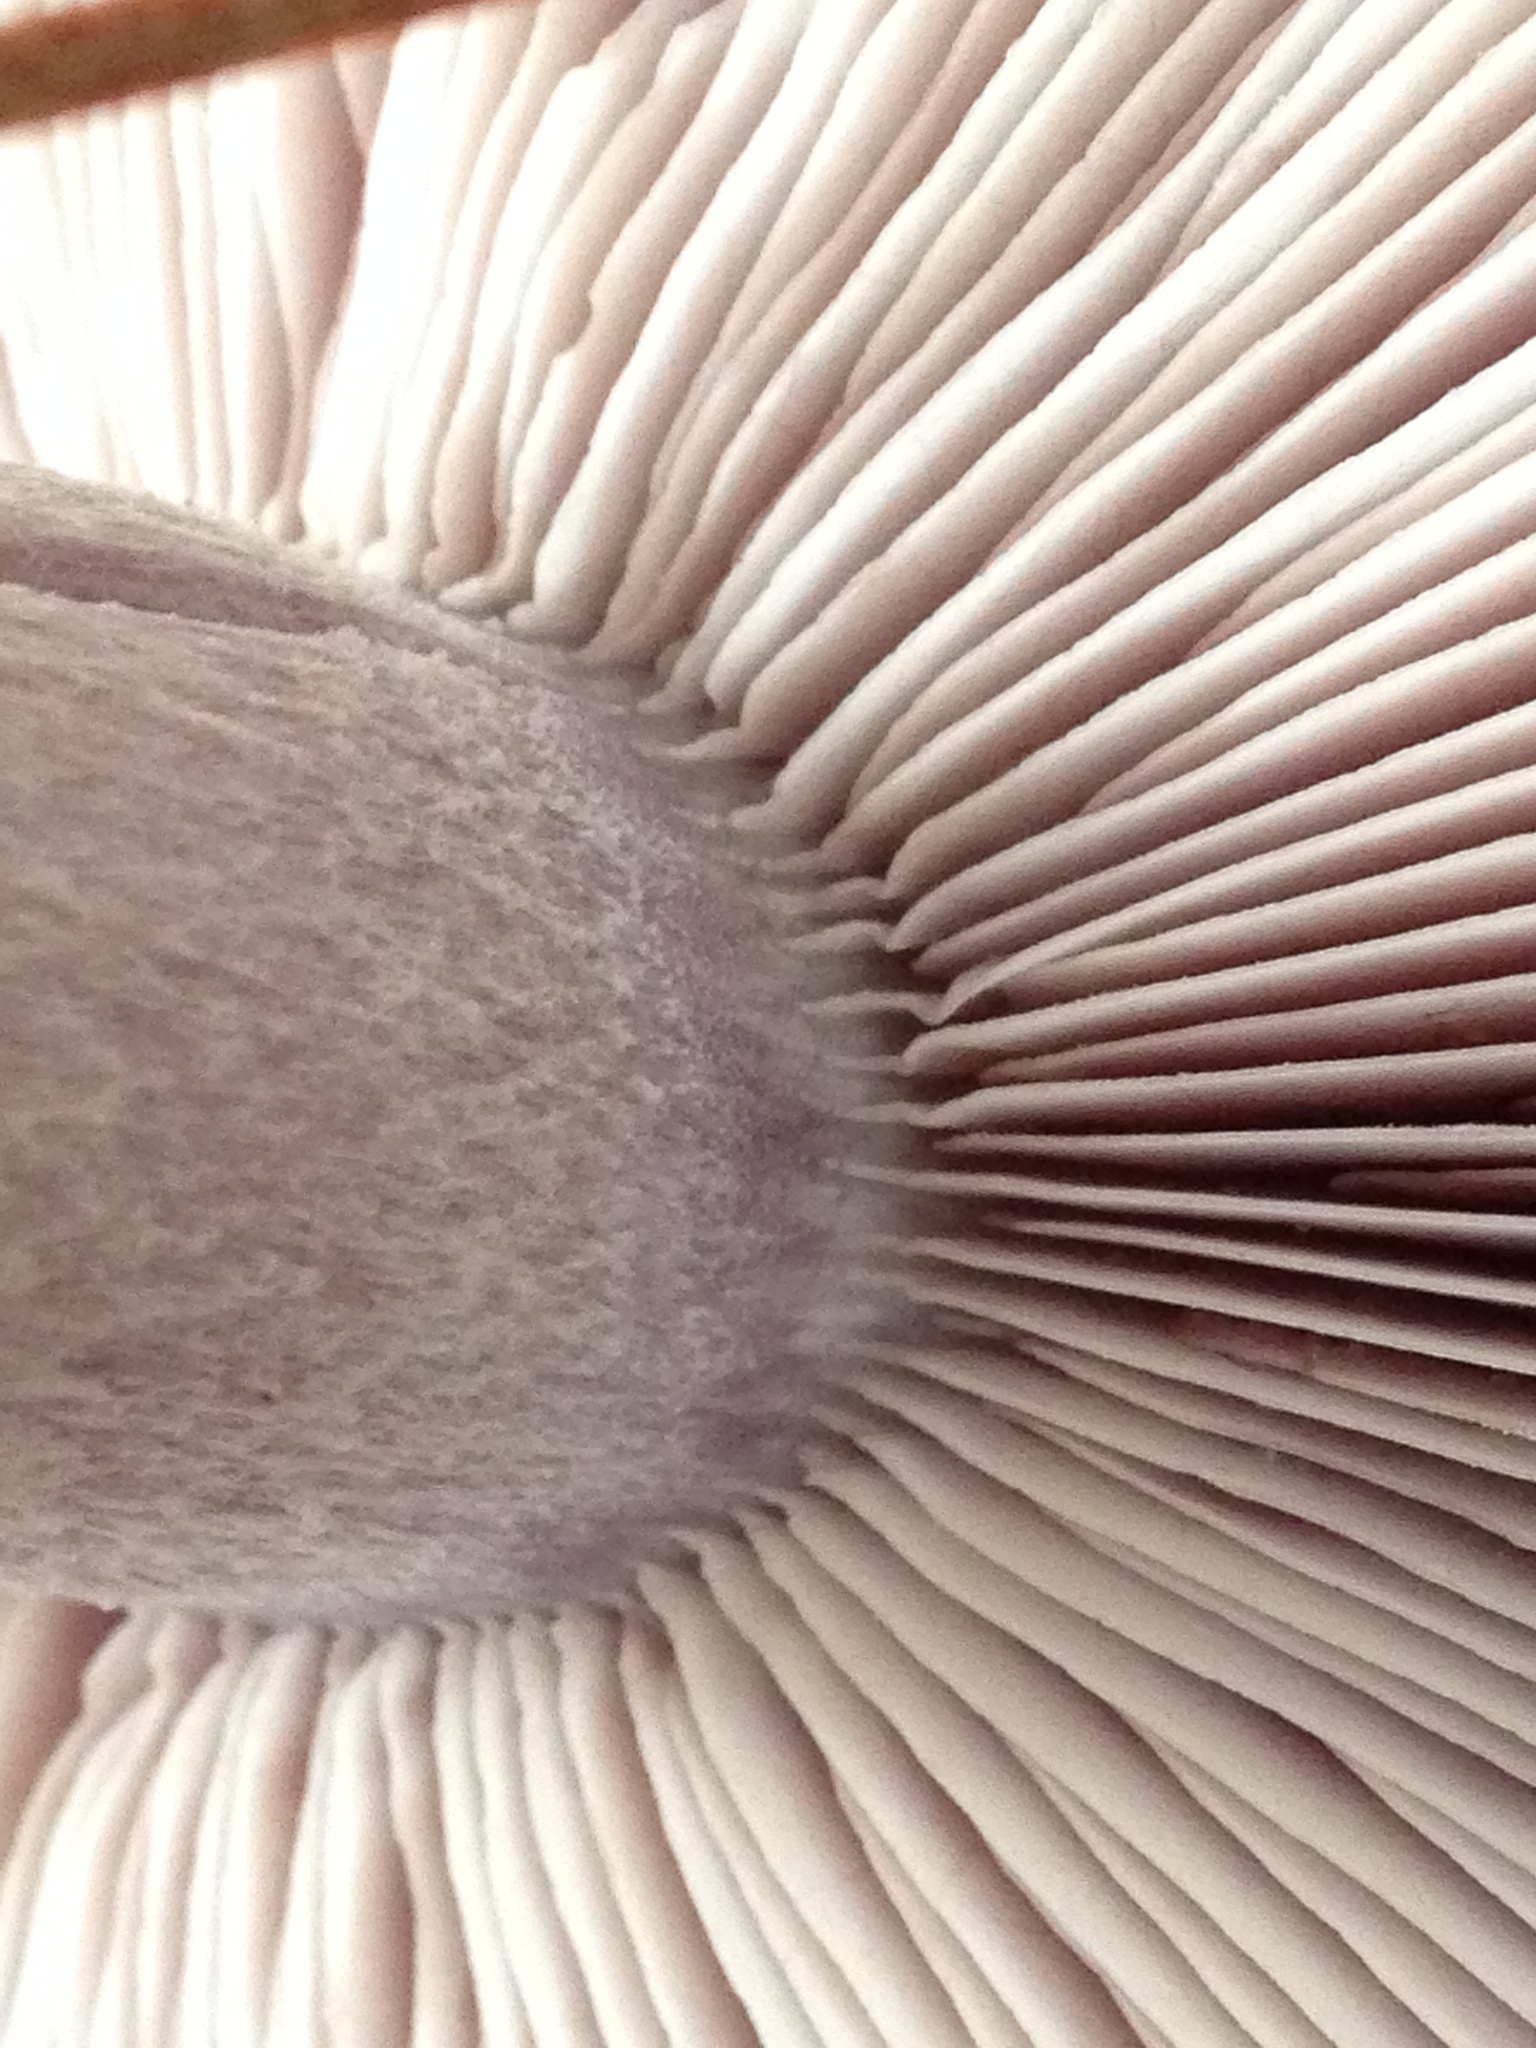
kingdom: Fungi
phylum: Basidiomycota
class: Agaricomycetes
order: Agaricales
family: Tricholomataceae
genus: Collybia
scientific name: Collybia
